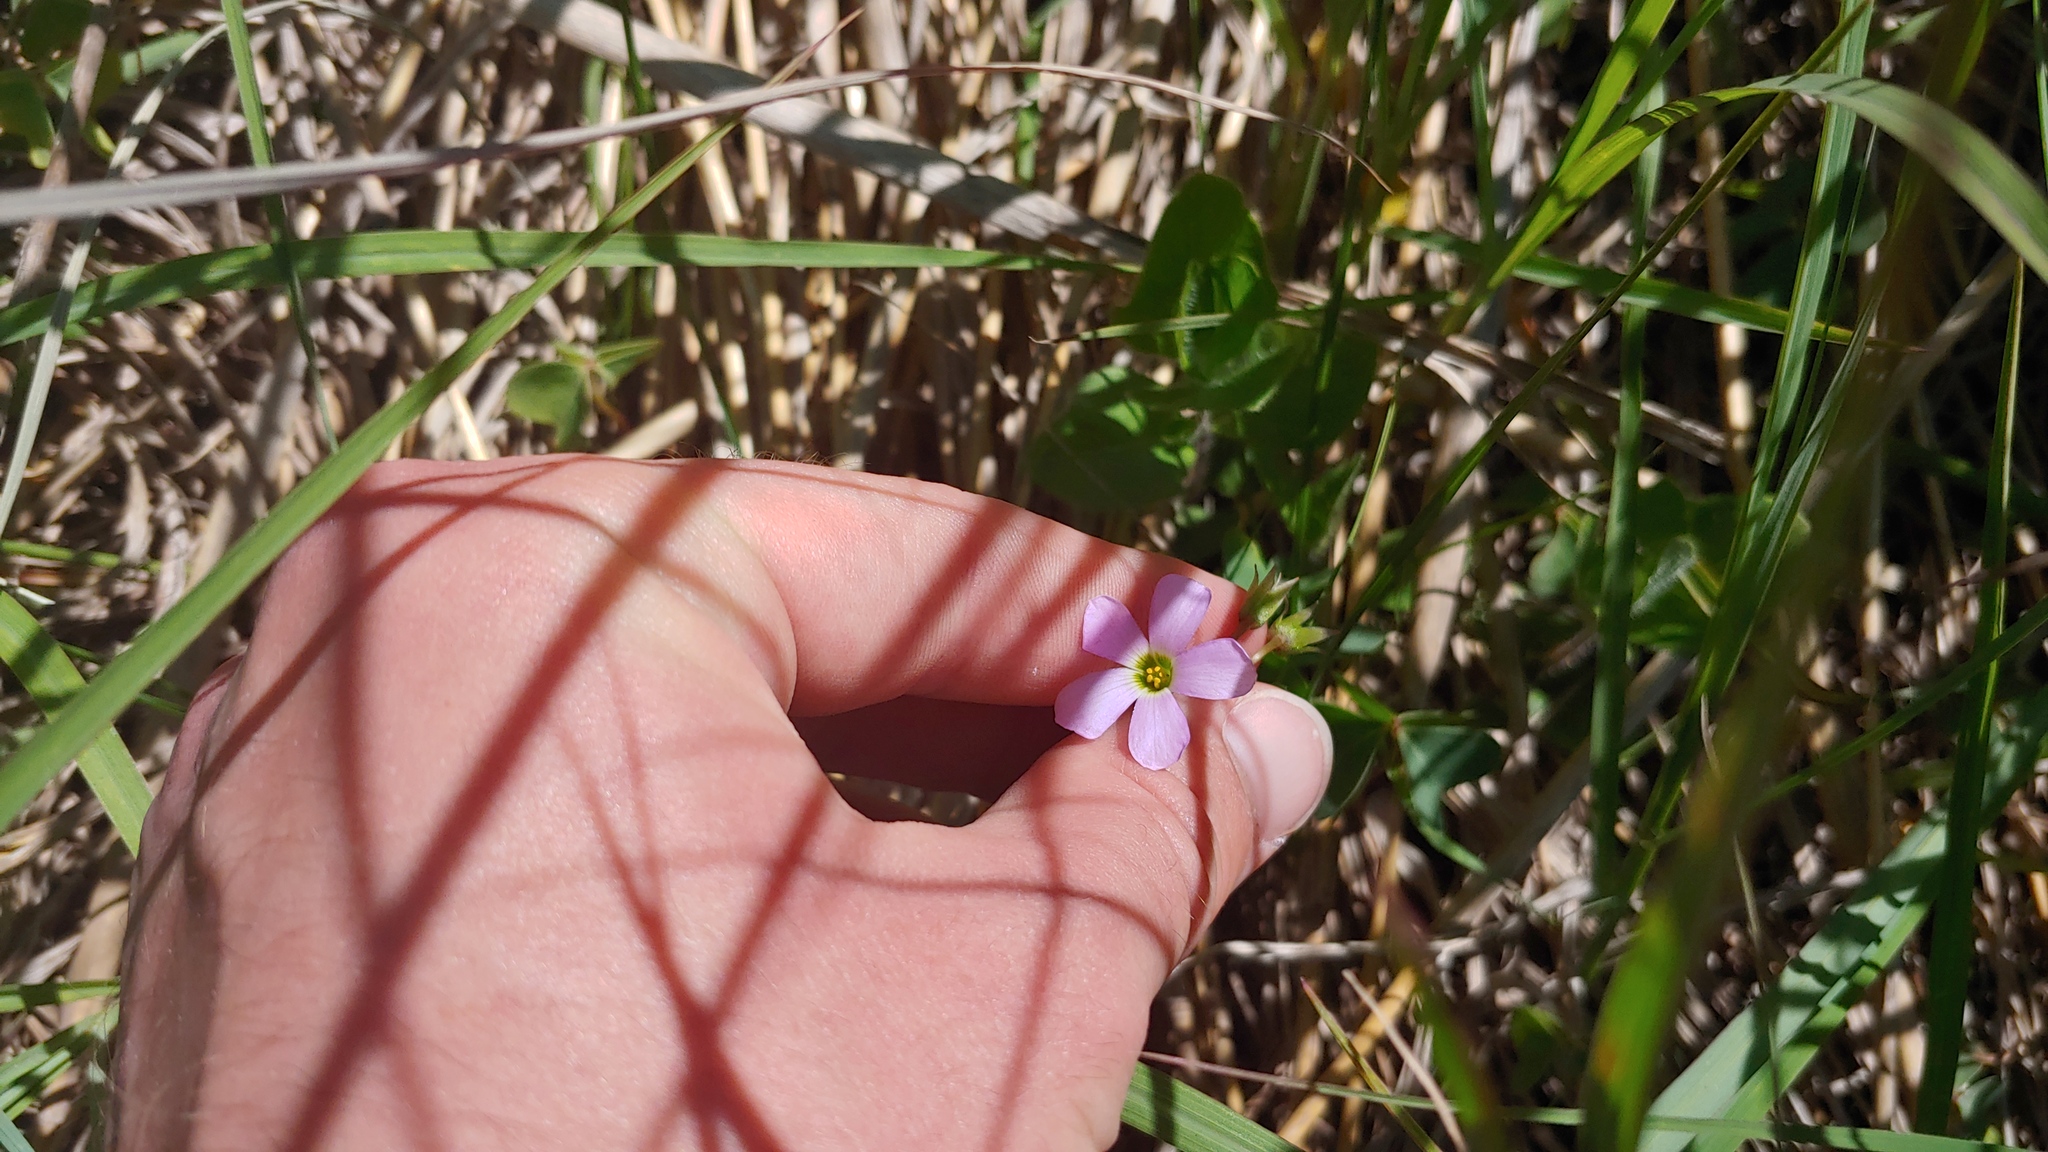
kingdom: Plantae
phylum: Tracheophyta
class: Magnoliopsida
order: Oxalidales
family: Oxalidaceae
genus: Oxalis
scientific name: Oxalis violacea
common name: Violet wood-sorrel
